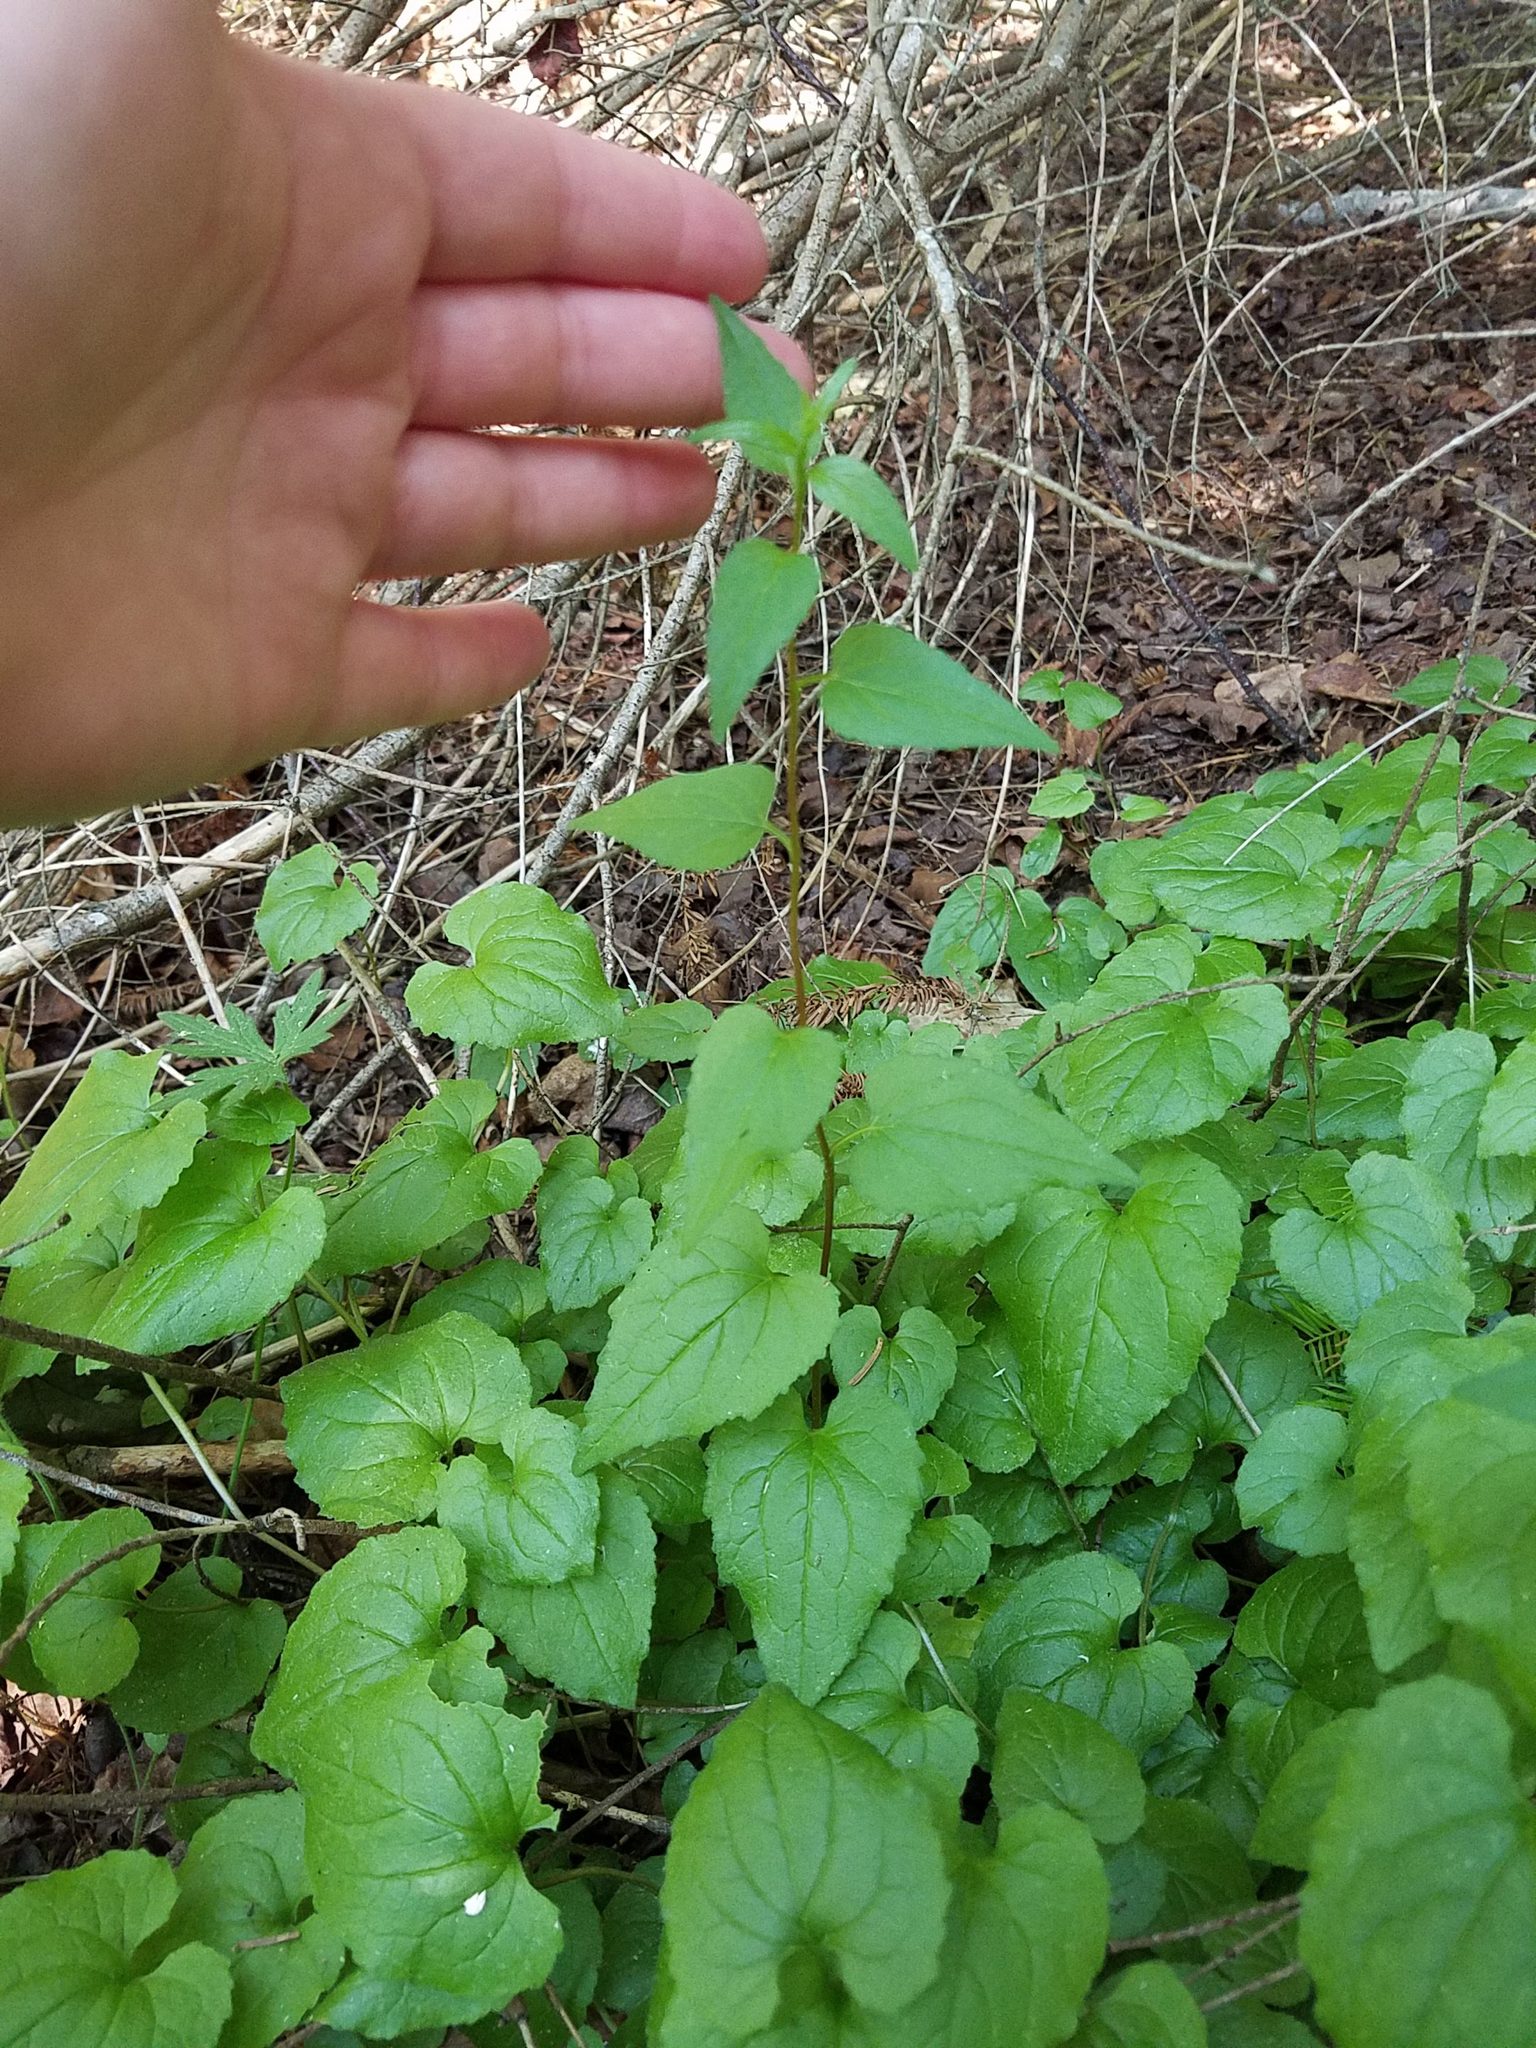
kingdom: Plantae
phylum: Tracheophyta
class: Magnoliopsida
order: Asterales
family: Campanulaceae
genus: Campanula
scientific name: Campanula rapunculoides
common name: Creeping bellflower
